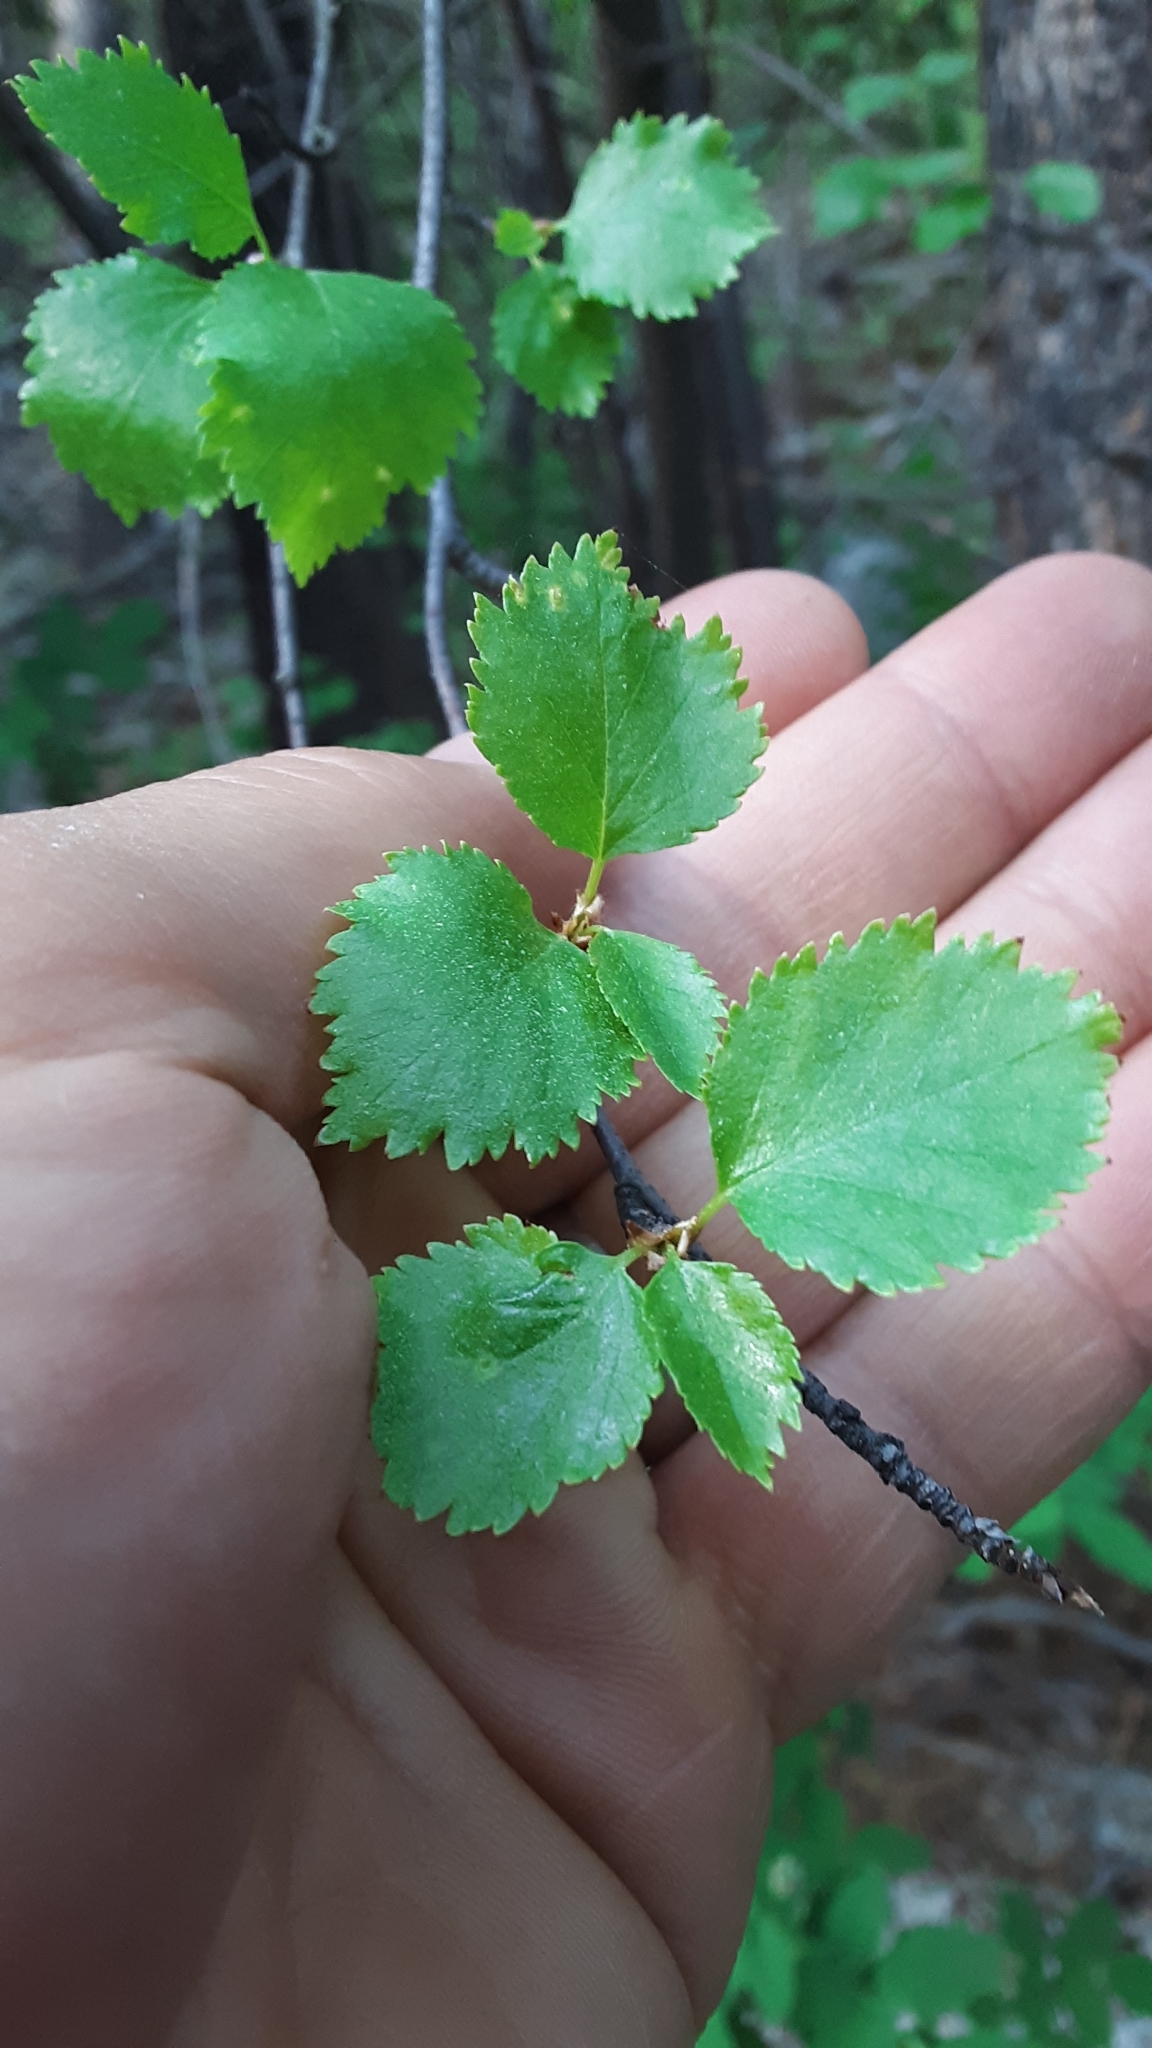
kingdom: Plantae
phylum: Tracheophyta
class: Magnoliopsida
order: Fagales
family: Betulaceae
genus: Betula
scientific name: Betula occidentalis
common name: River birch
